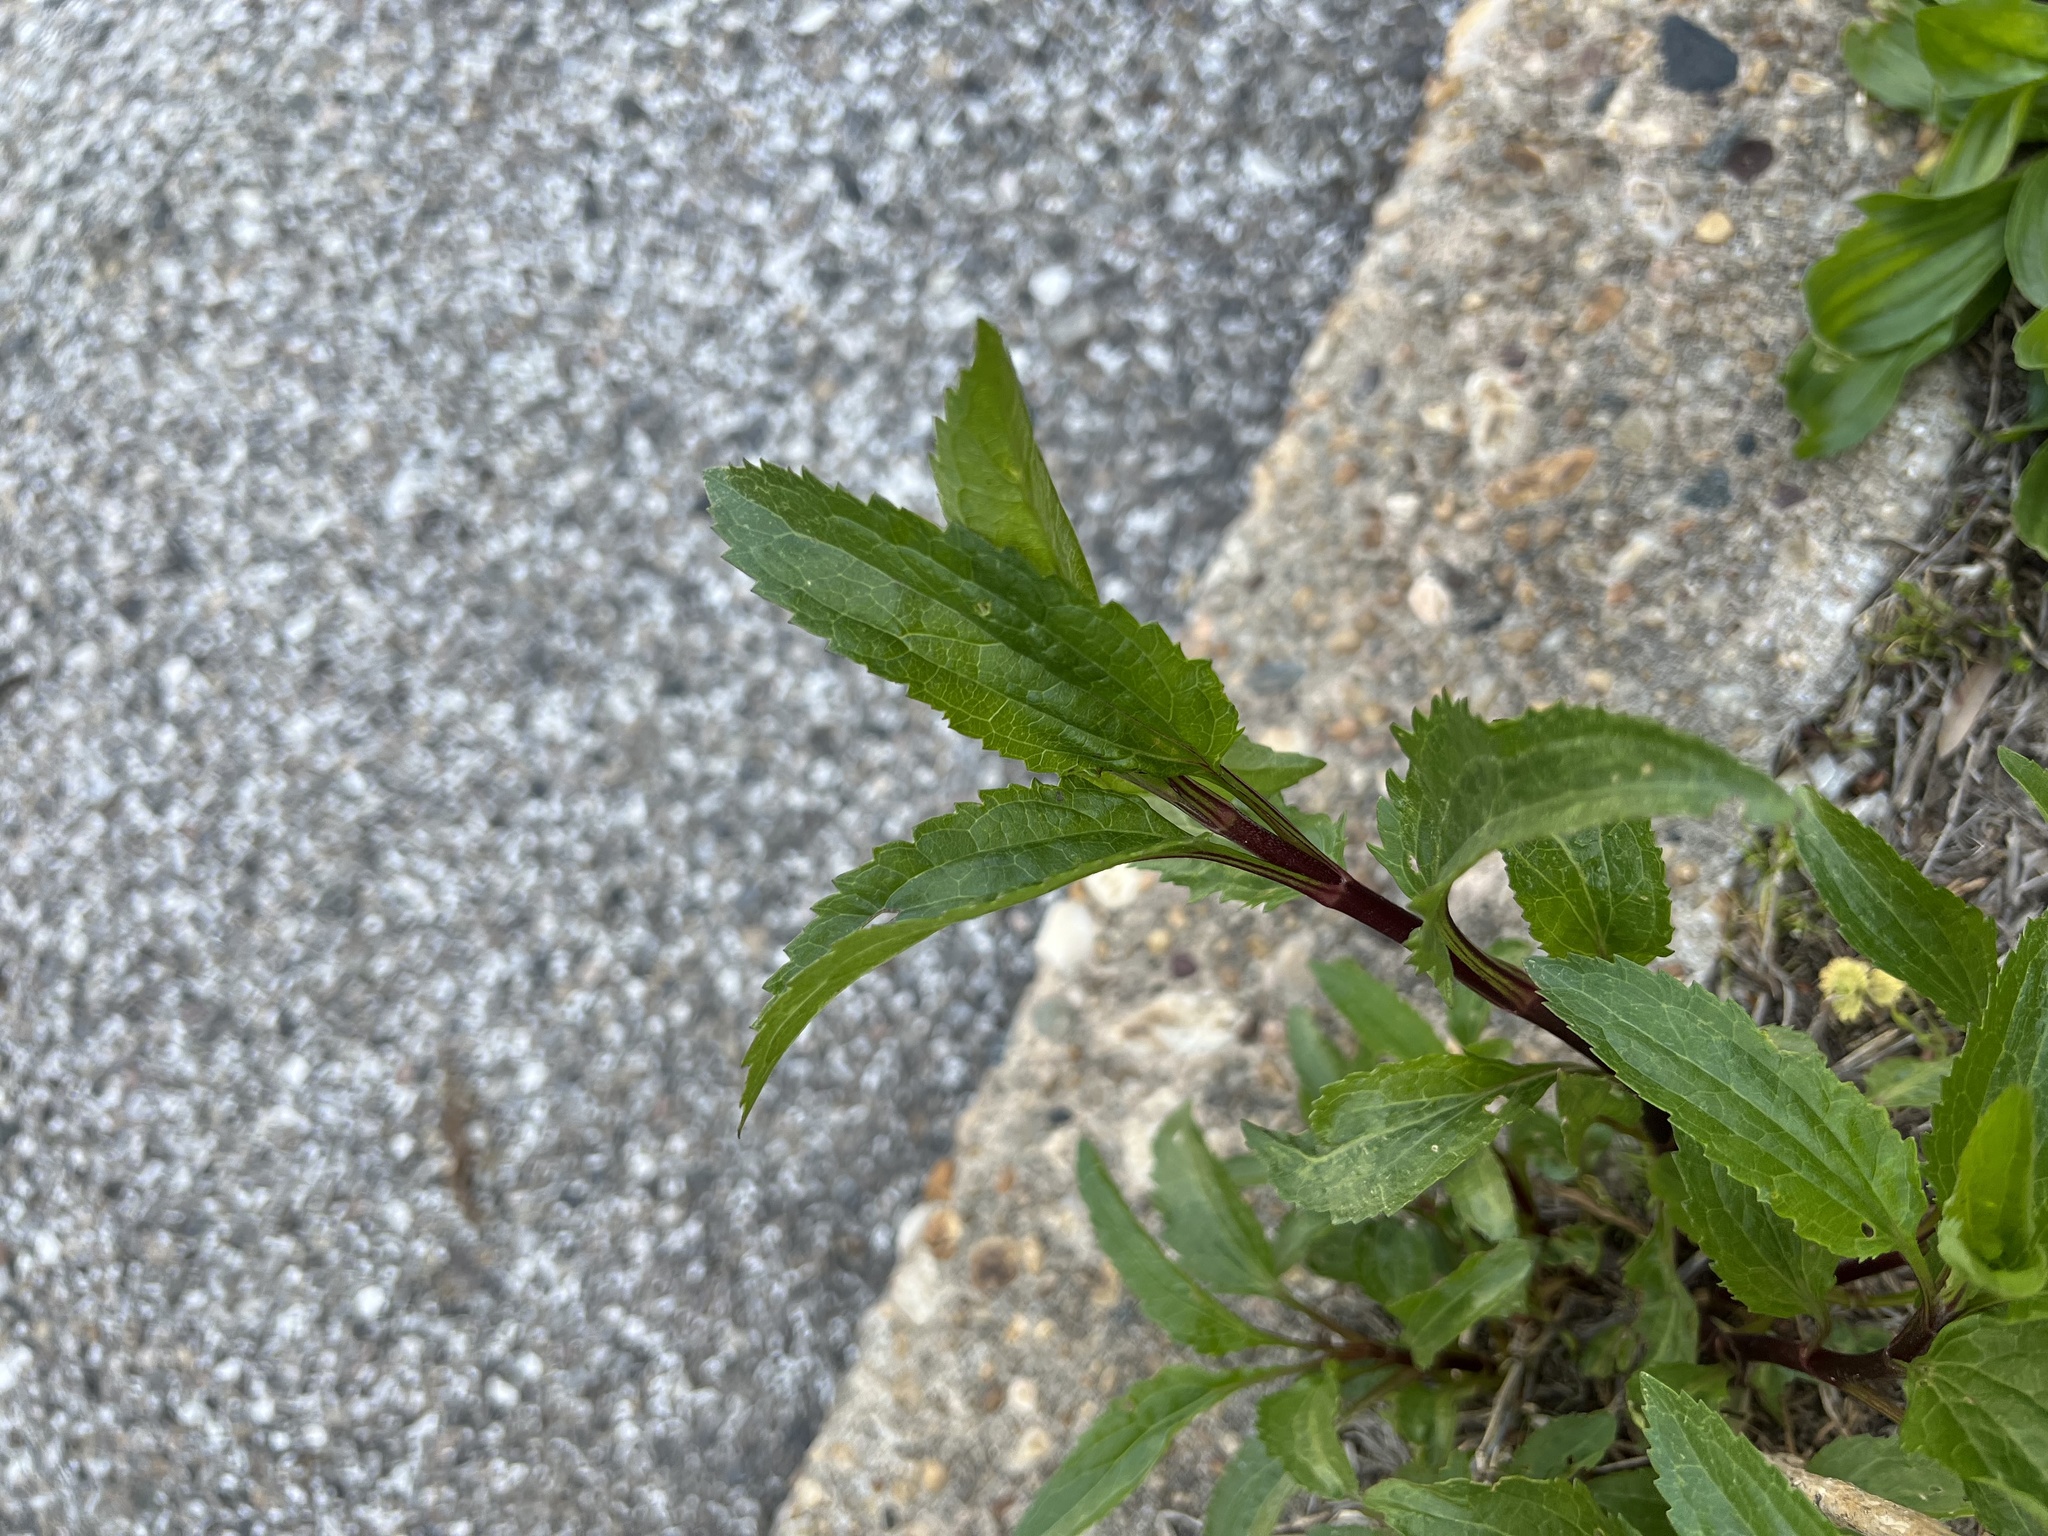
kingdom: Plantae
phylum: Tracheophyta
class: Magnoliopsida
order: Asterales
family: Asteraceae
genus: Eupatorium
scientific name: Eupatorium serotinum
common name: Late boneset
